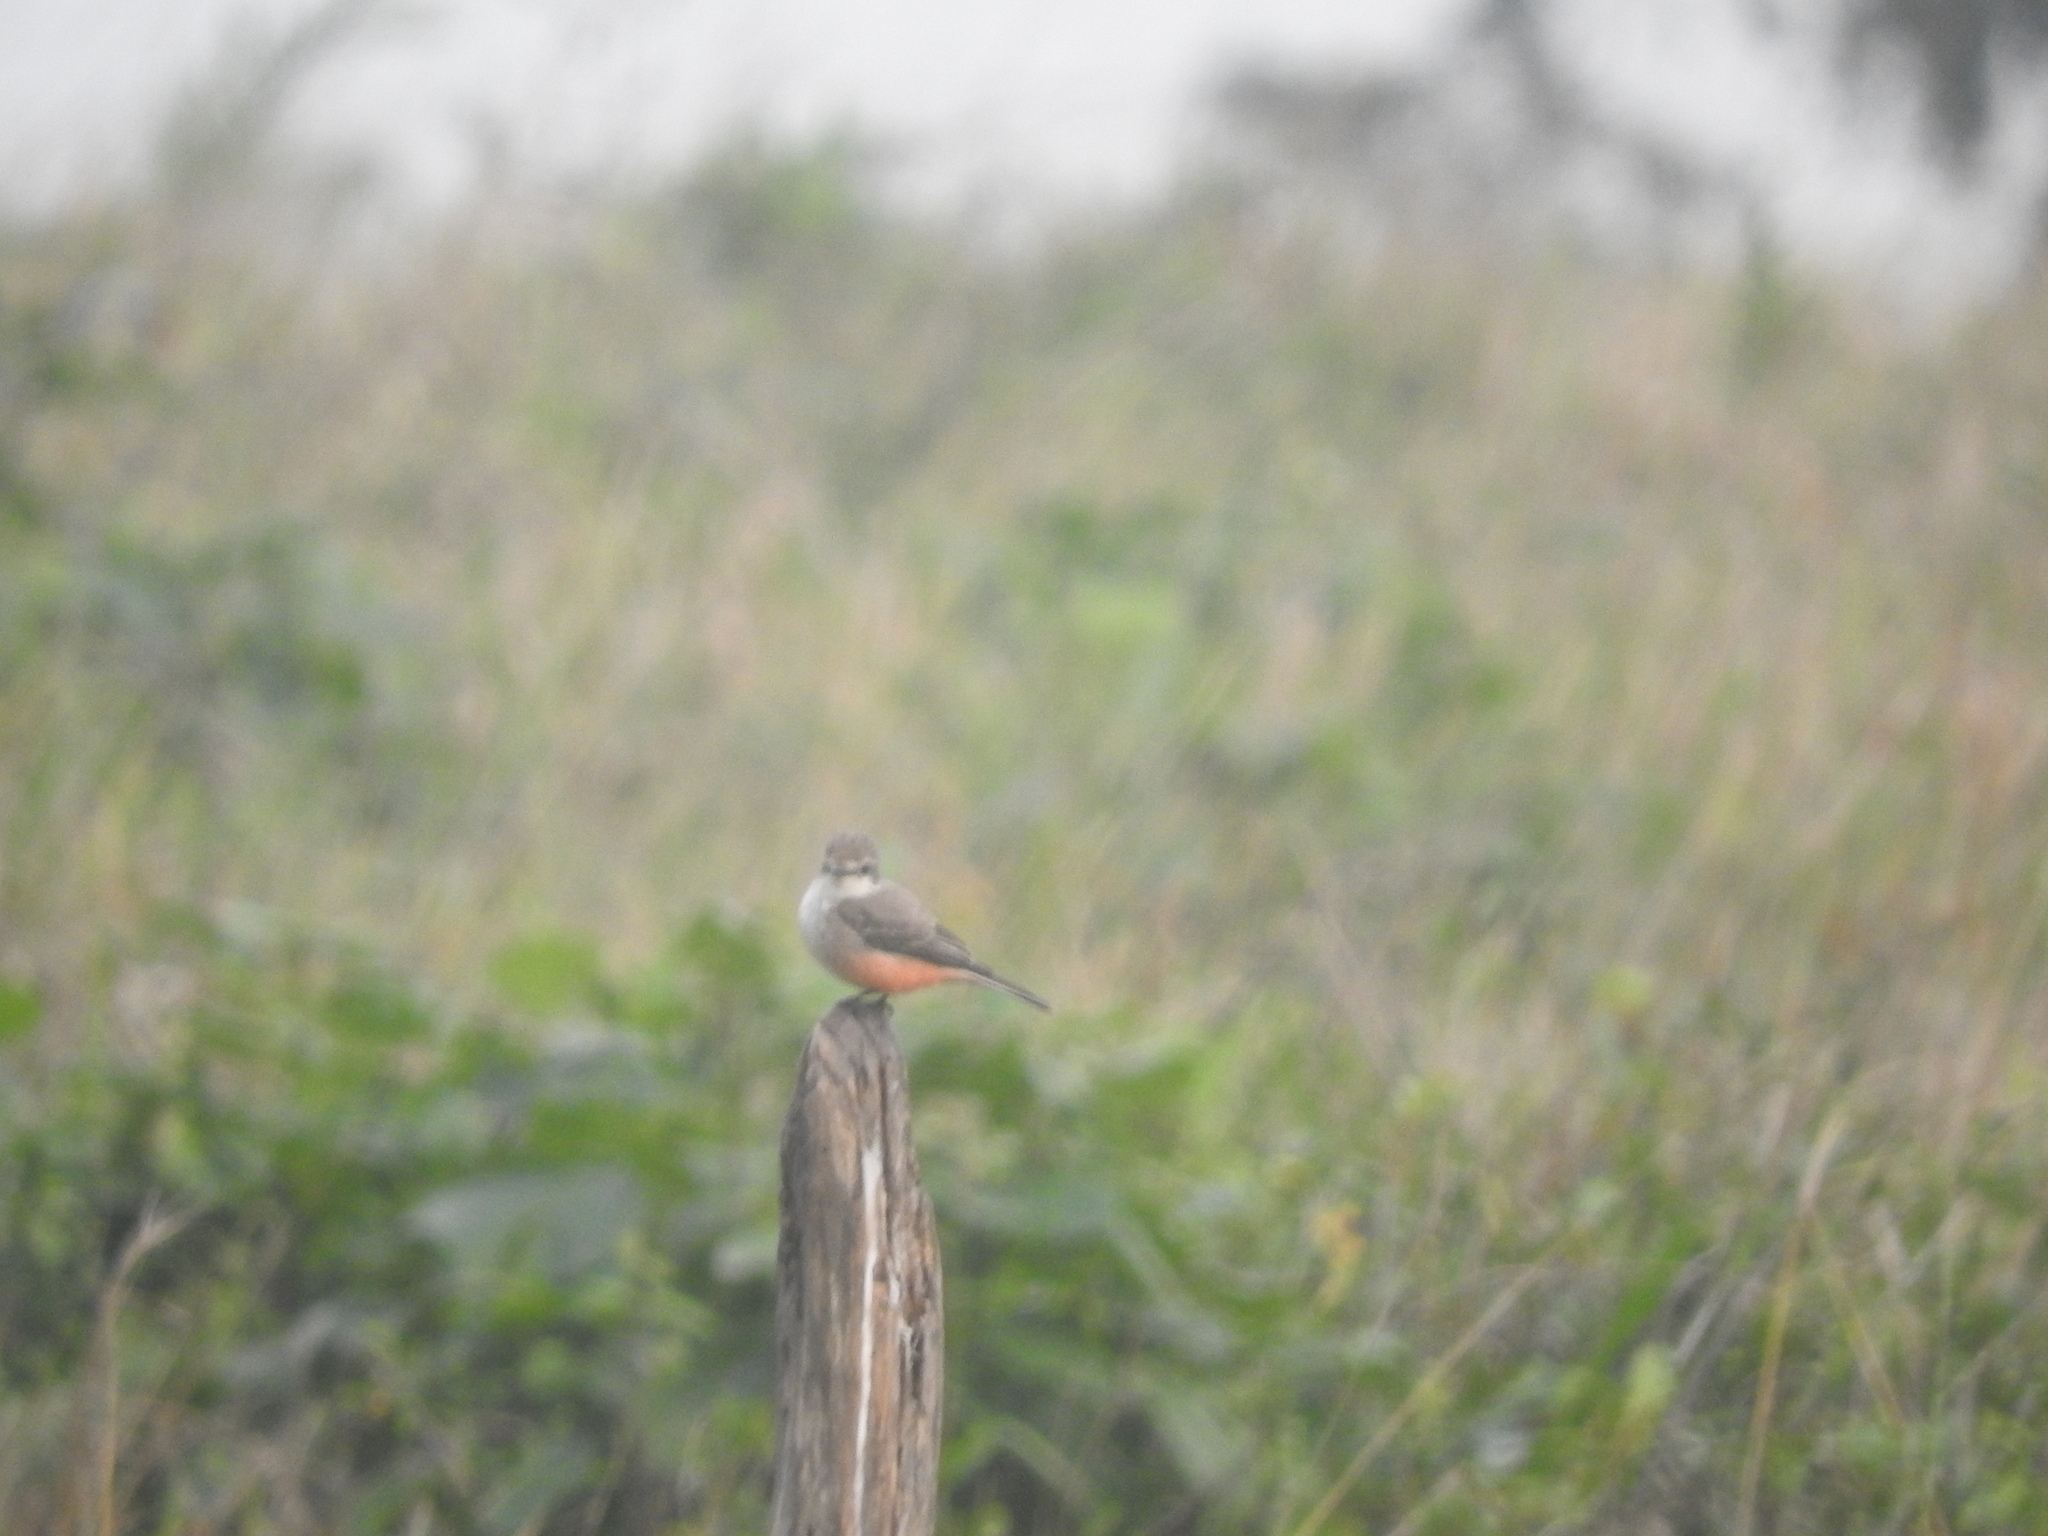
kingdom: Animalia
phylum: Chordata
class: Aves
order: Passeriformes
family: Tyrannidae
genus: Pyrocephalus
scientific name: Pyrocephalus rubinus
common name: Vermilion flycatcher
